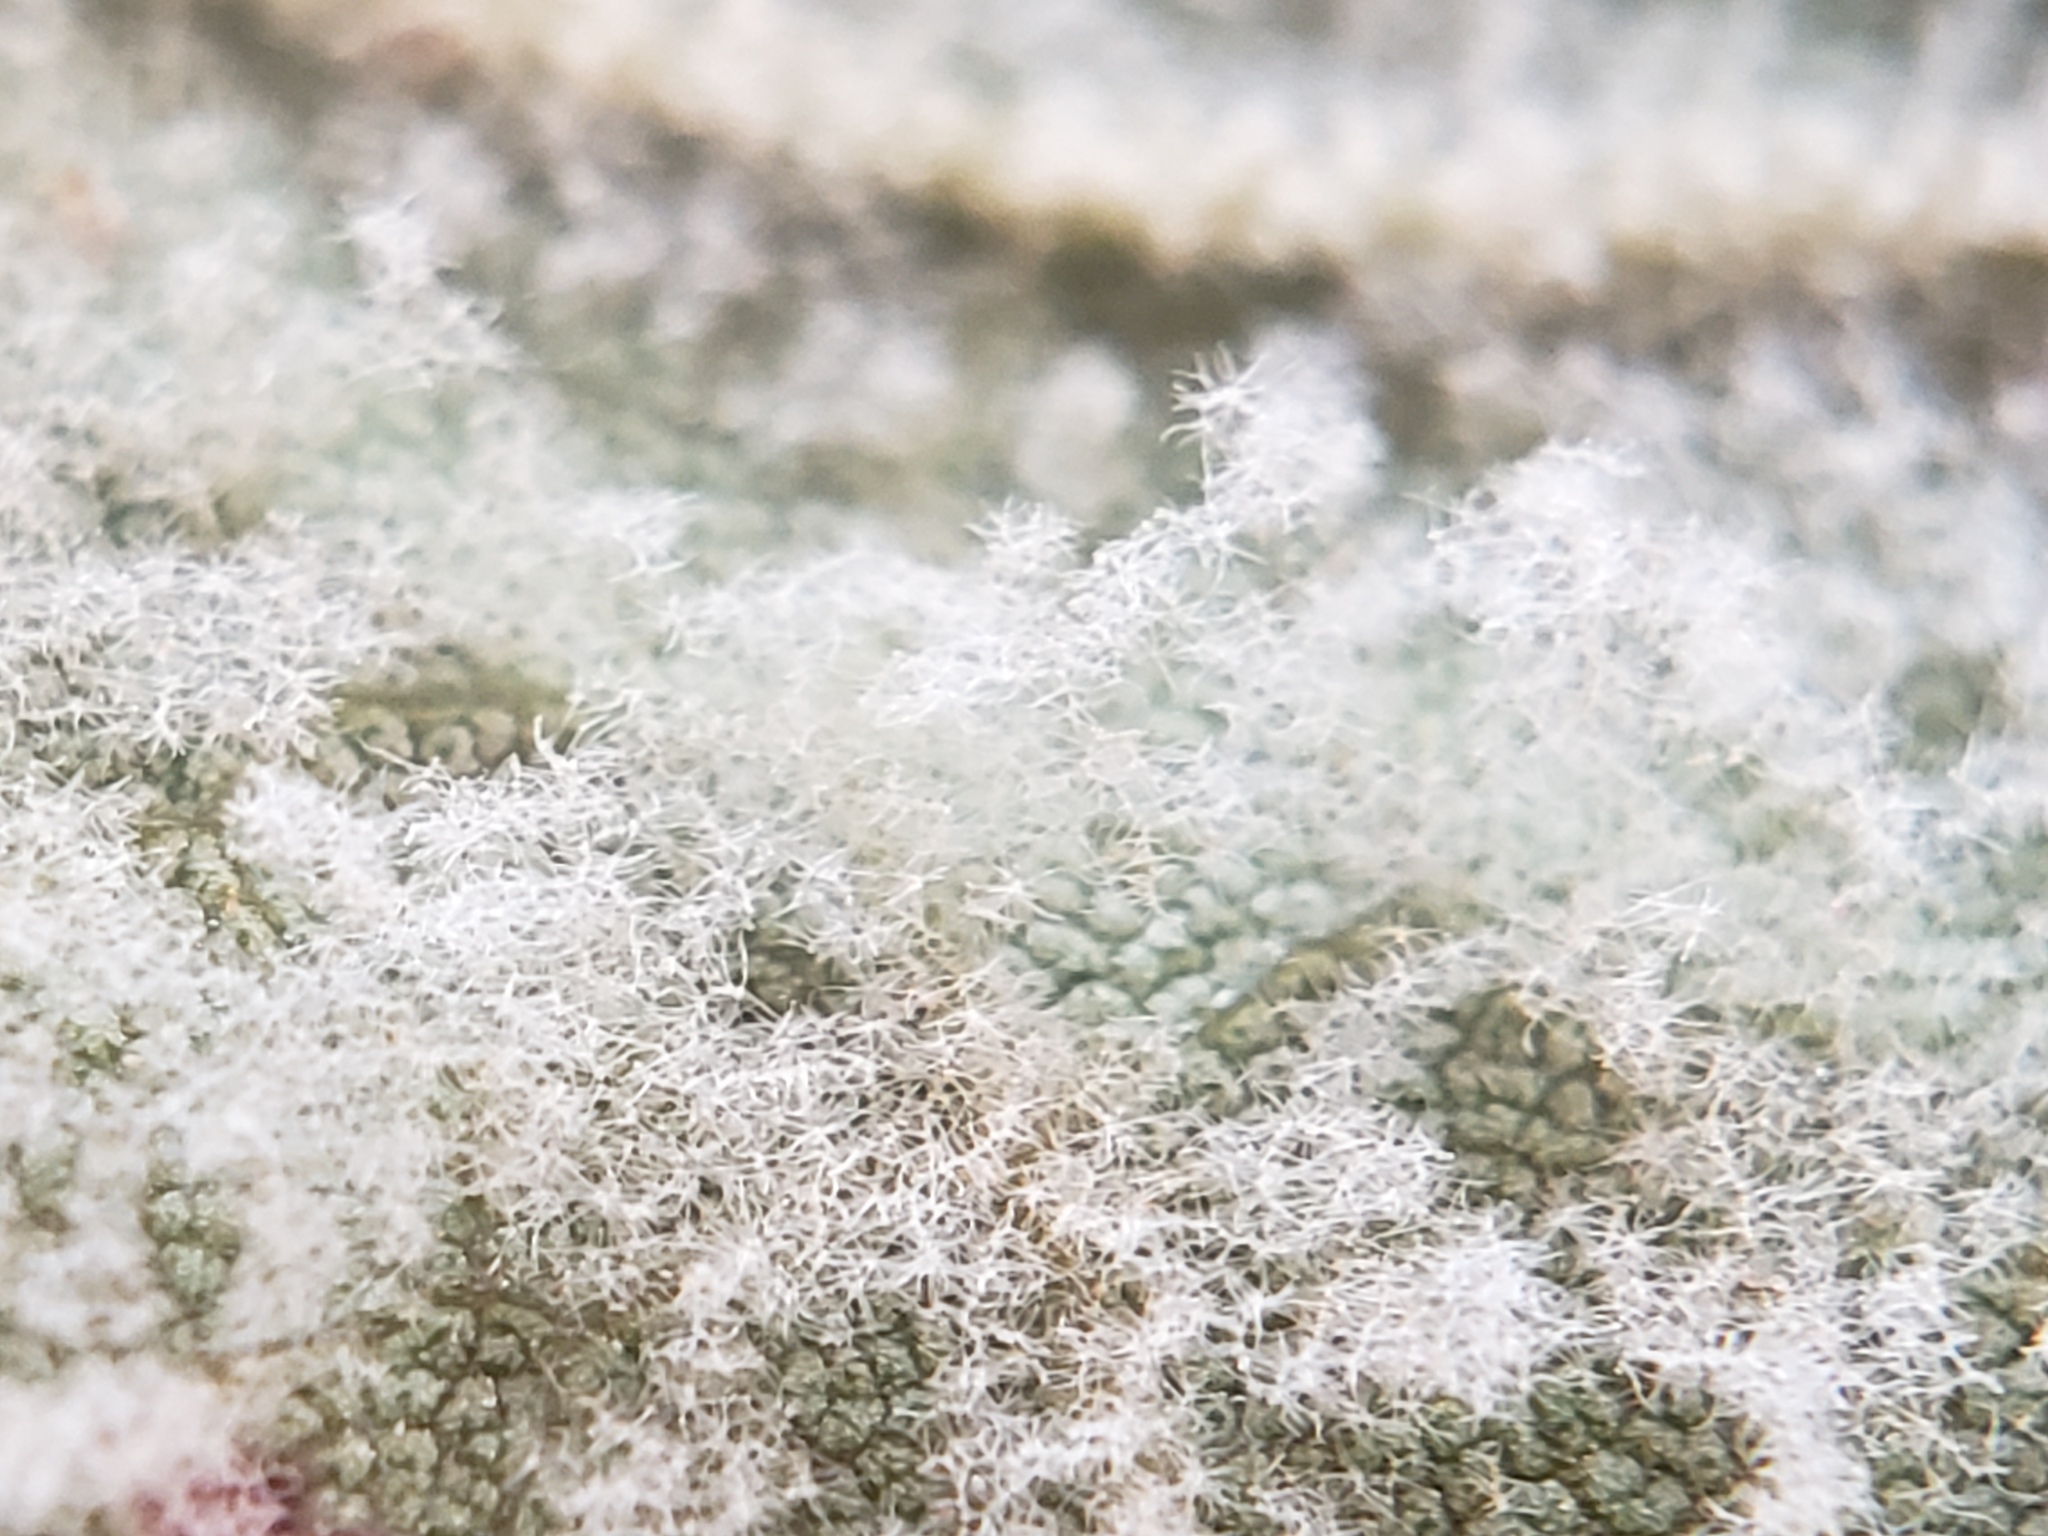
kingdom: Fungi
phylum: Ascomycota
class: Leotiomycetes
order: Helotiales
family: Erysiphaceae
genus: Erysiphe
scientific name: Erysiphe platani
